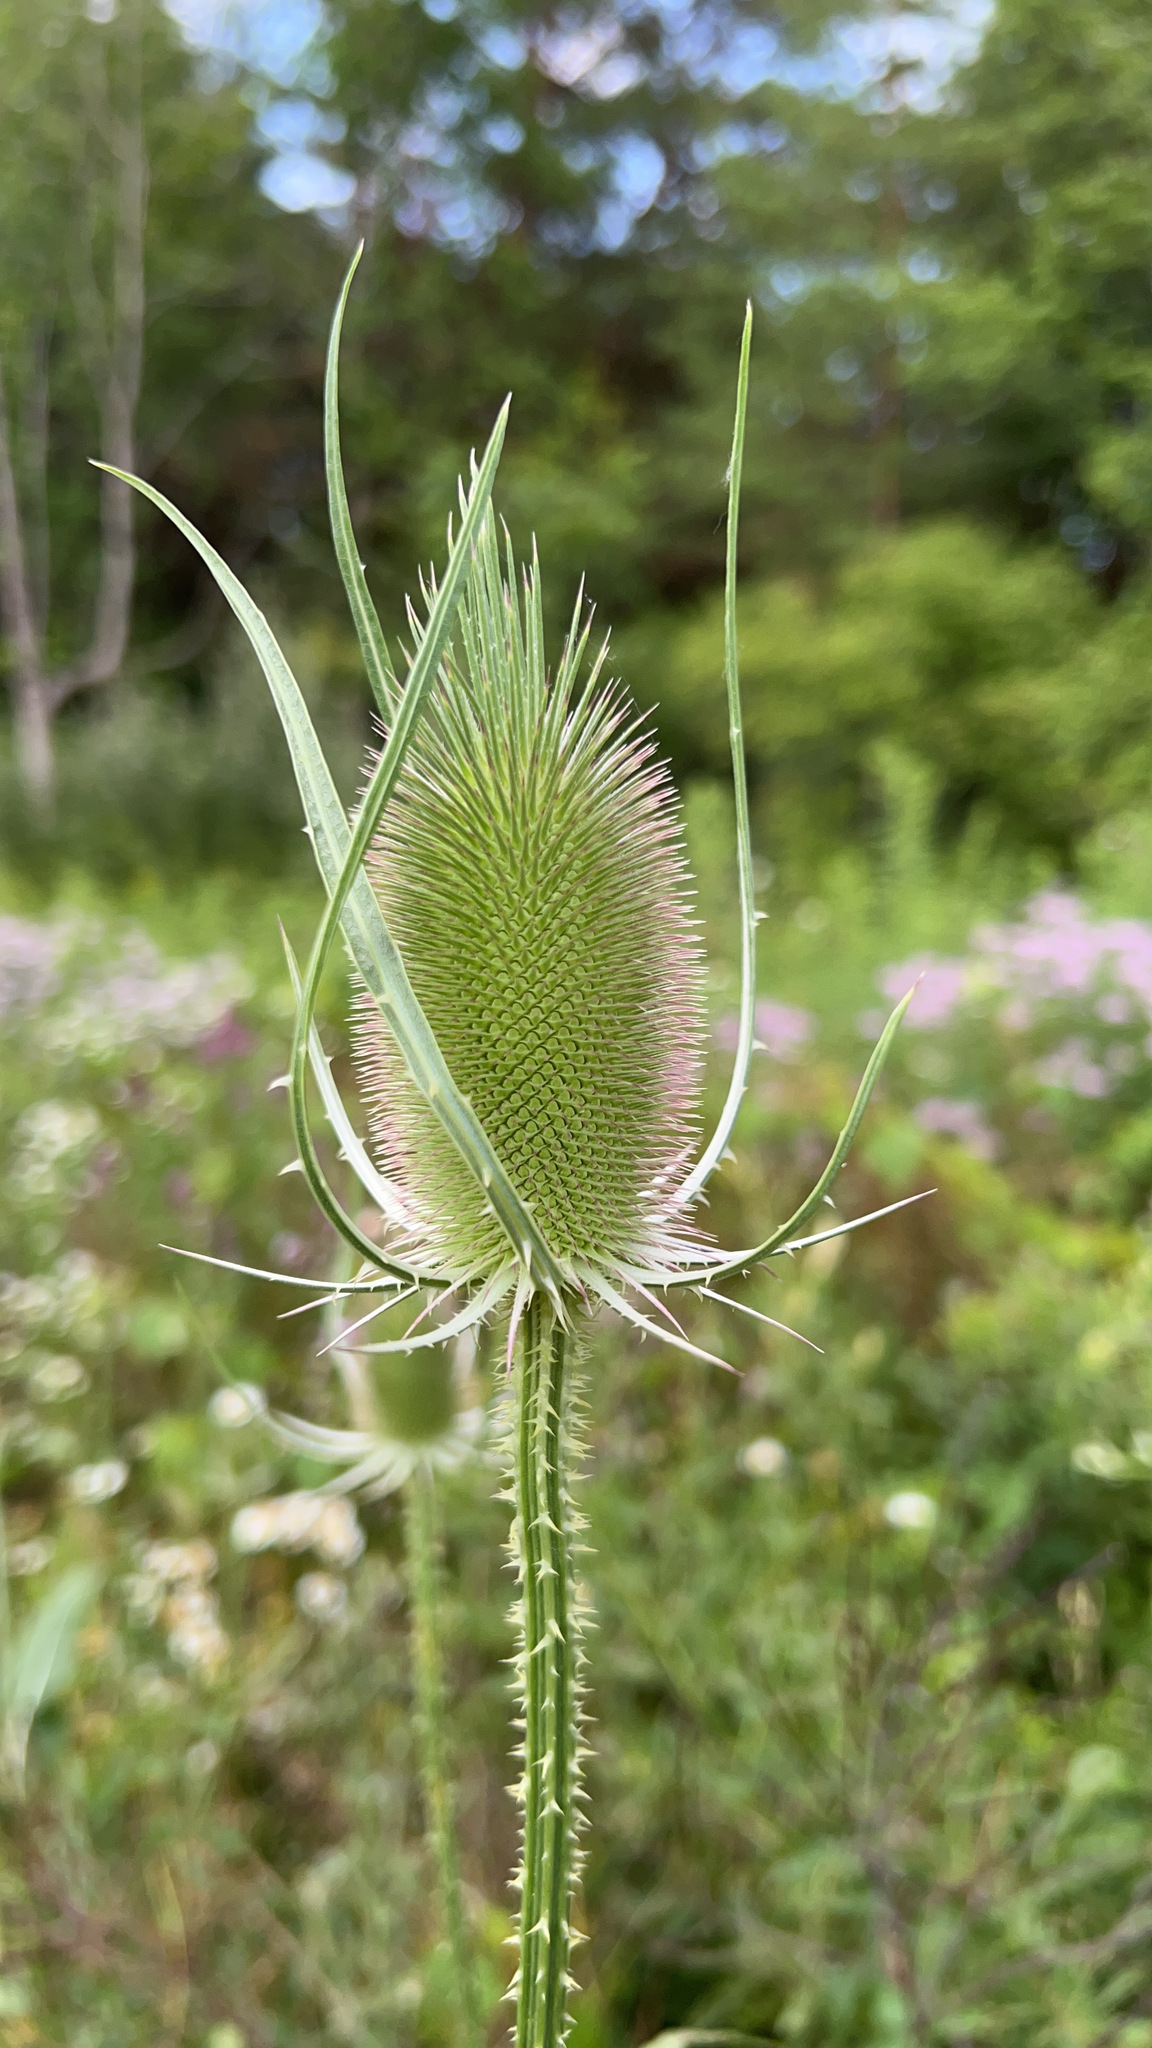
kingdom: Plantae
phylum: Tracheophyta
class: Magnoliopsida
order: Dipsacales
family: Caprifoliaceae
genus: Dipsacus
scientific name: Dipsacus fullonum
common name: Teasel
